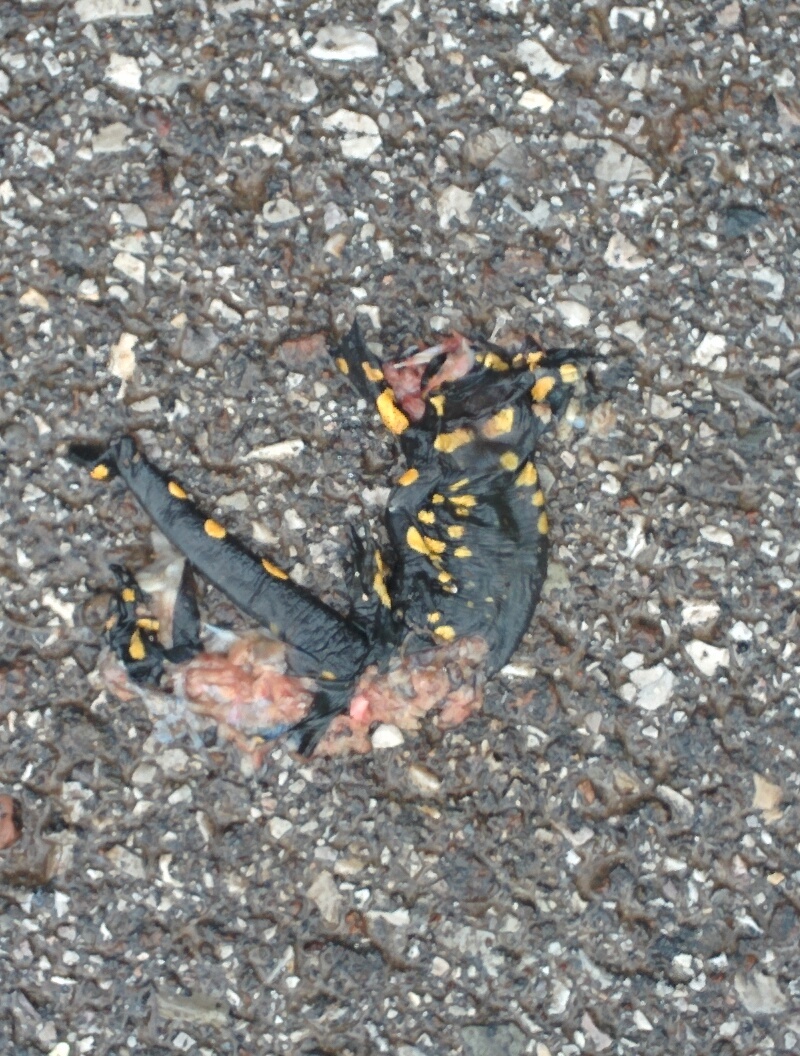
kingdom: Animalia
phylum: Chordata
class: Amphibia
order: Caudata
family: Salamandridae
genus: Salamandra
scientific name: Salamandra salamandra
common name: Fire salamander
